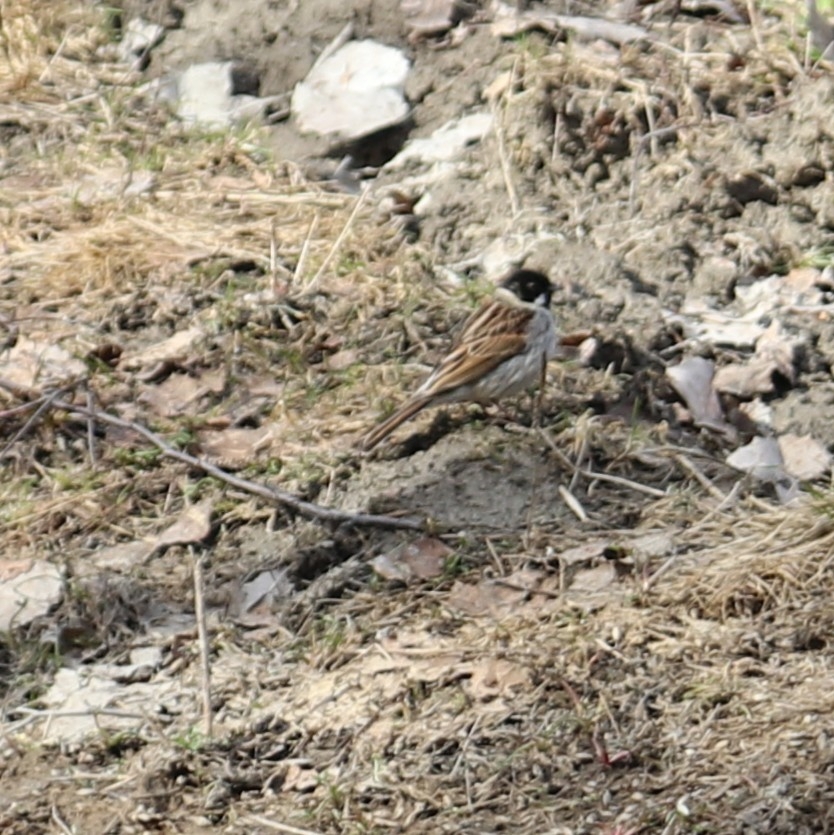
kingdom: Animalia
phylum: Chordata
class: Aves
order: Passeriformes
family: Emberizidae
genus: Emberiza
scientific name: Emberiza schoeniclus
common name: Reed bunting
